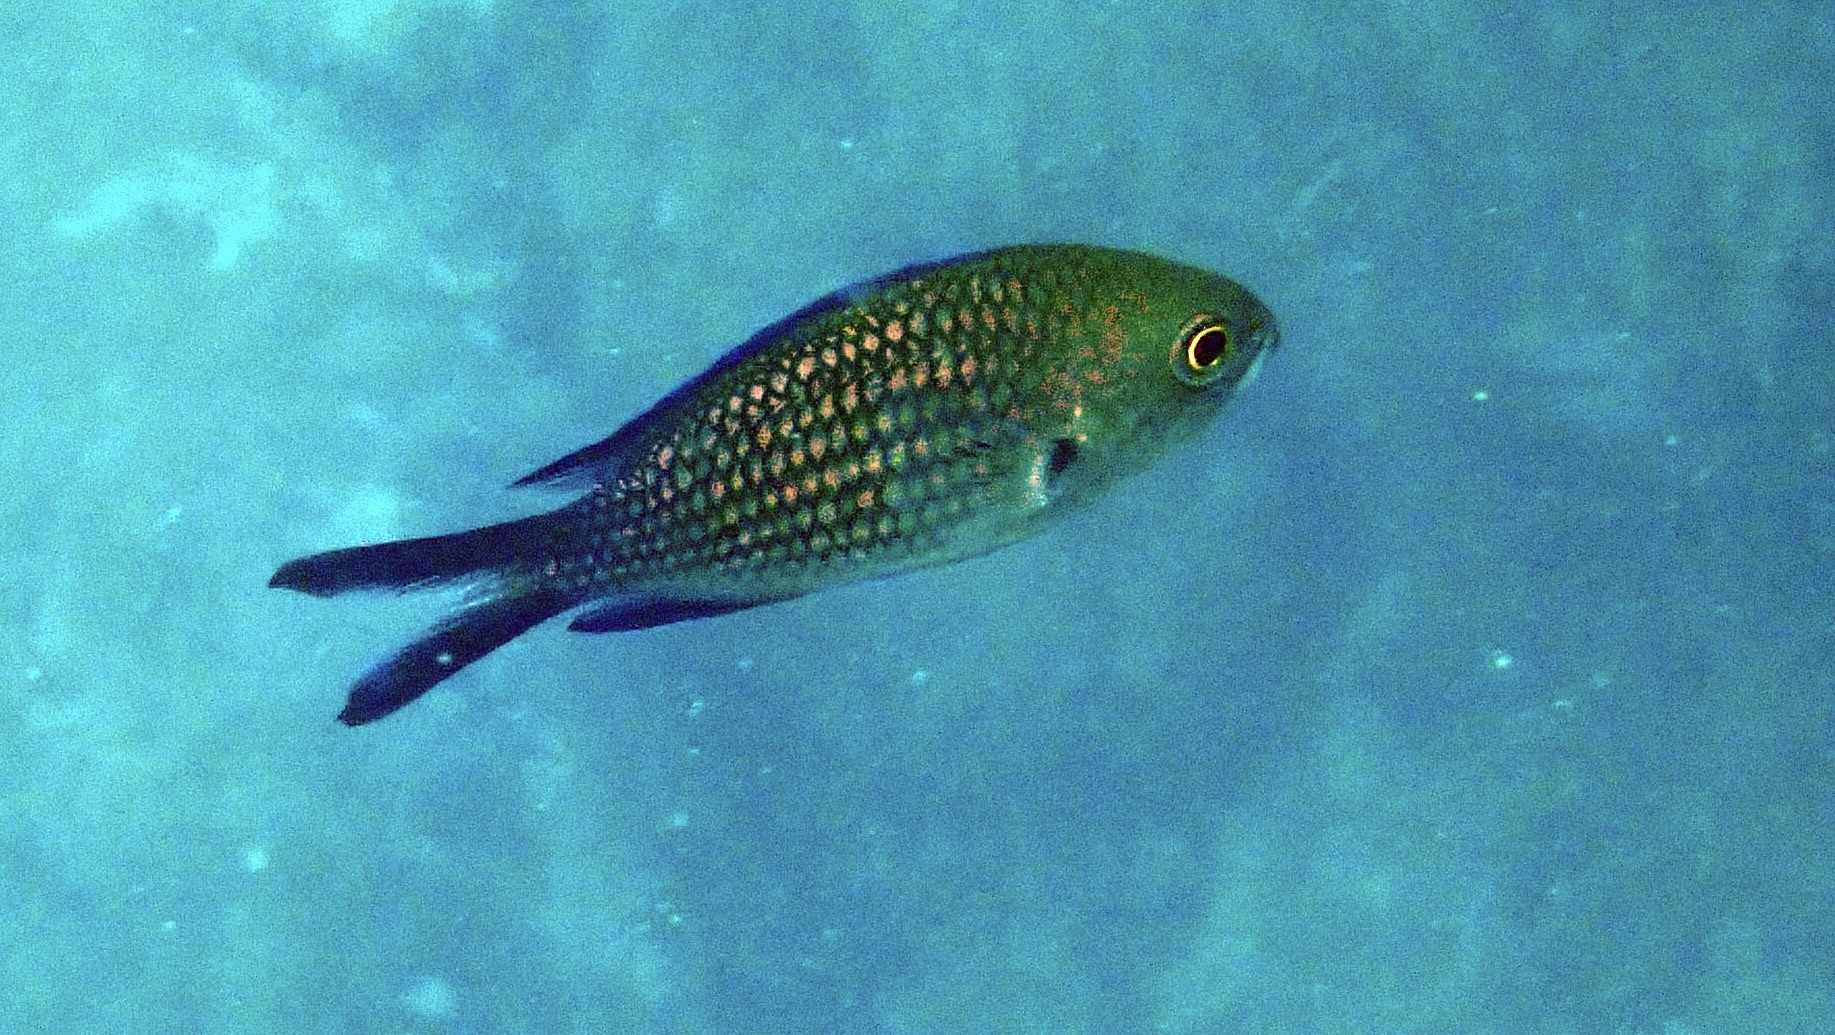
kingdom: Animalia
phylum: Chordata
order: Perciformes
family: Pomacentridae
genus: Chromis
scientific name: Chromis chromis
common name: Damselfish
